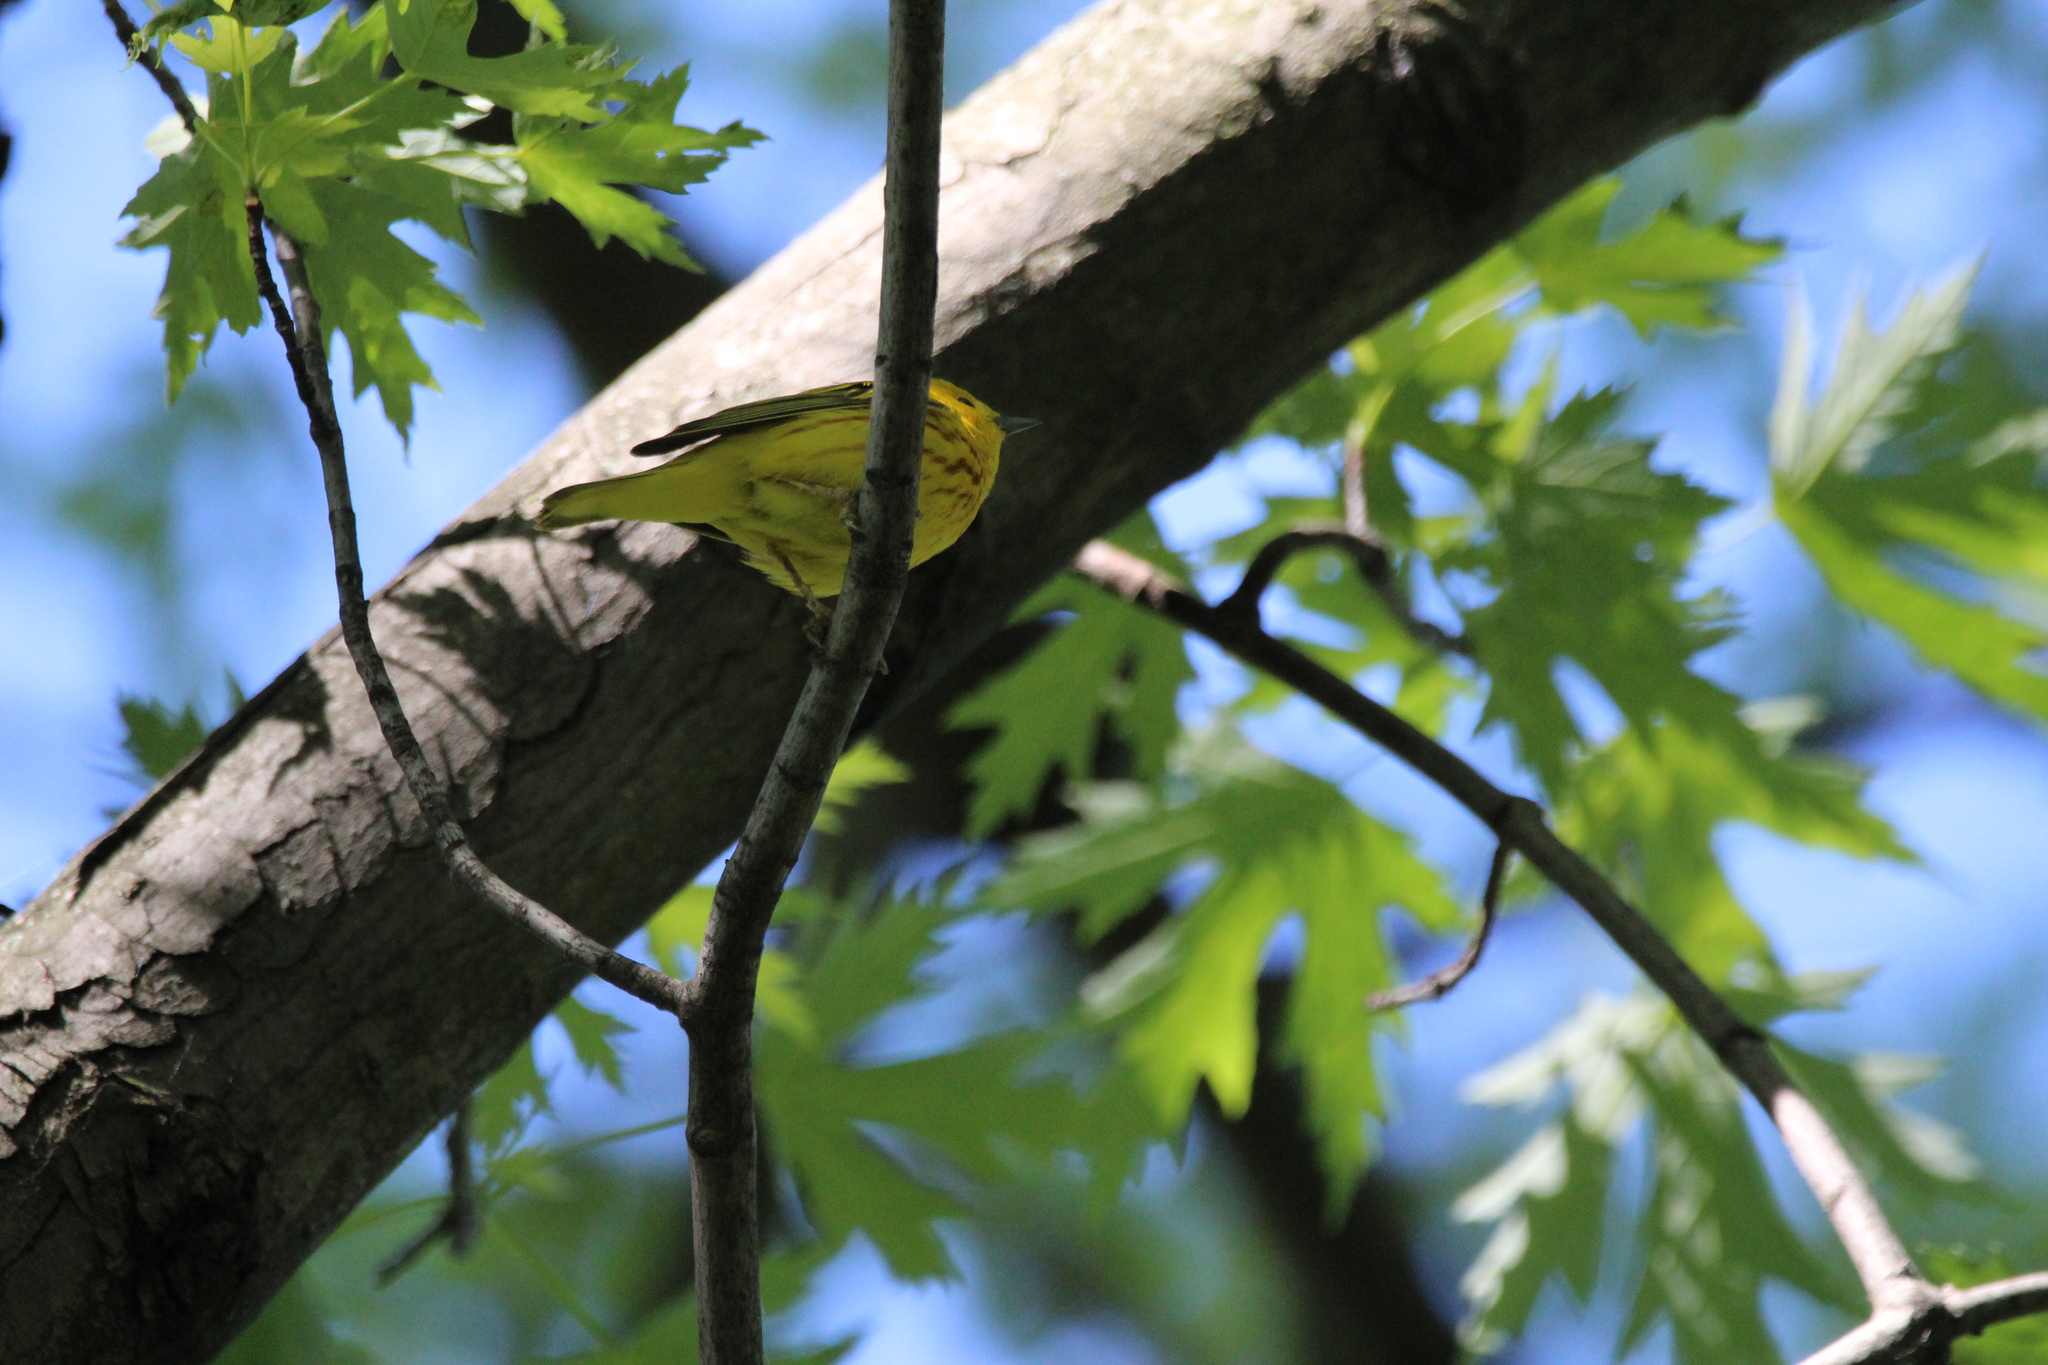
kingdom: Animalia
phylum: Chordata
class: Aves
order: Passeriformes
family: Parulidae
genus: Setophaga
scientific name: Setophaga petechia
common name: Yellow warbler
